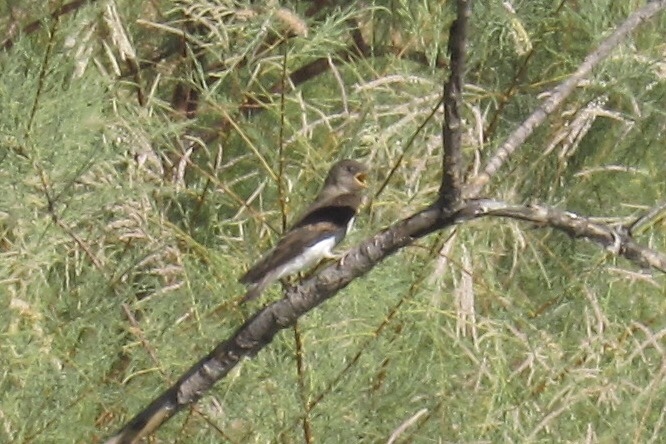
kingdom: Animalia
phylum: Chordata
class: Aves
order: Passeriformes
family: Hirundinidae
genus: Stelgidopteryx
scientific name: Stelgidopteryx serripennis
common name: Northern rough-winged swallow
